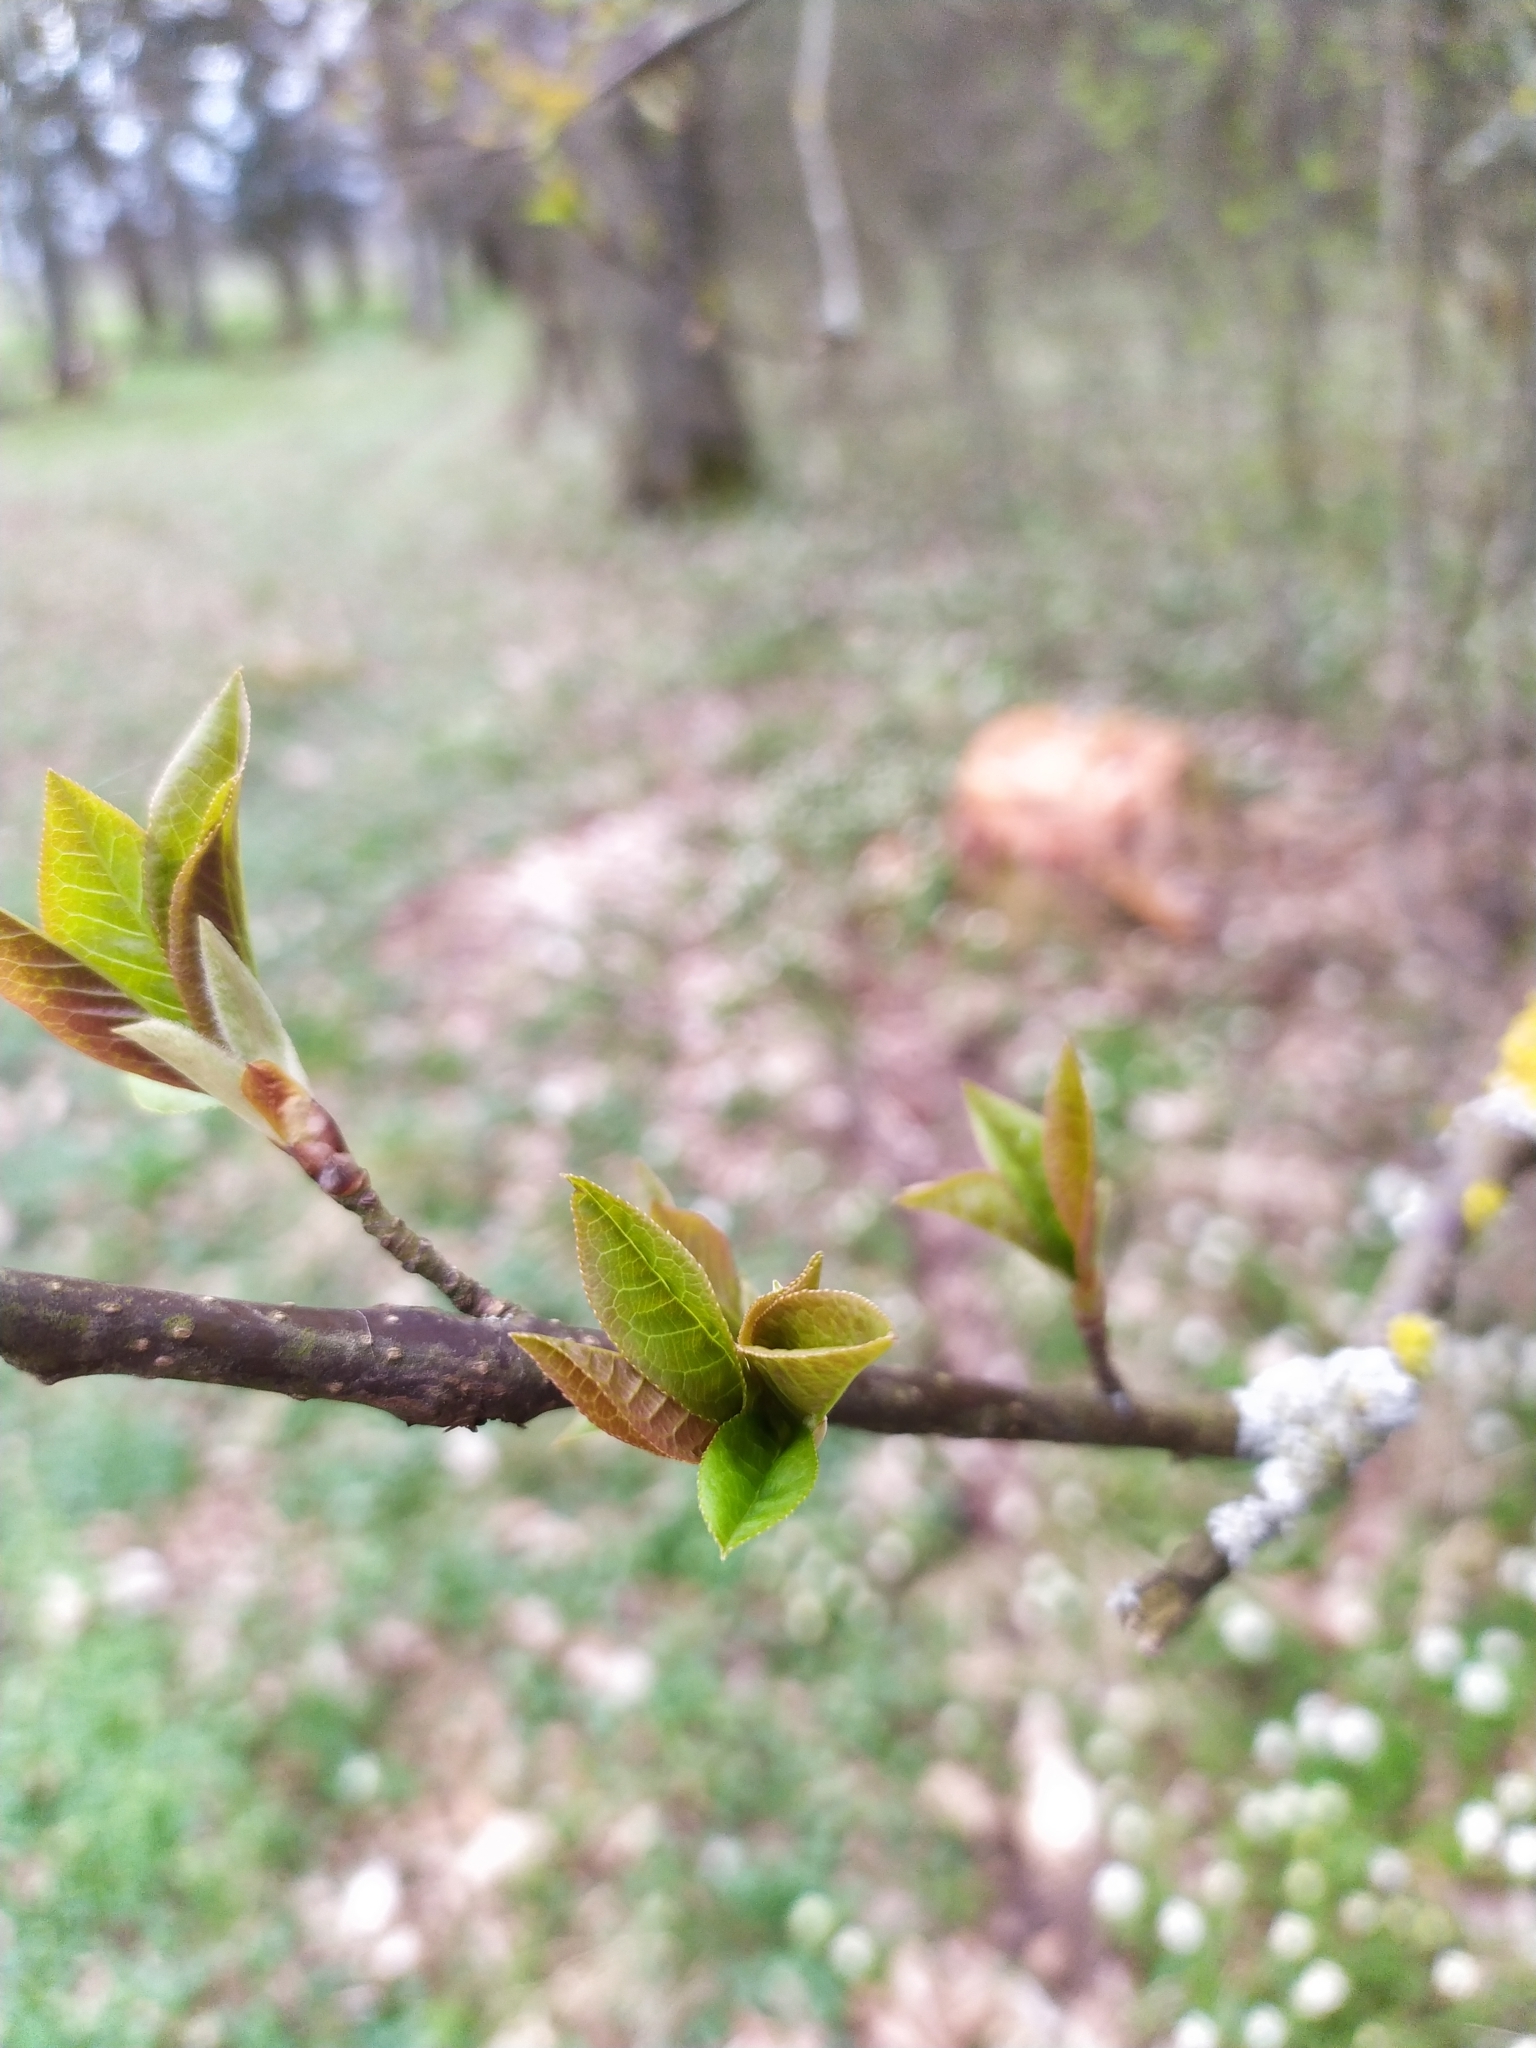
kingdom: Plantae
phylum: Tracheophyta
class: Magnoliopsida
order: Rosales
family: Rosaceae
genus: Prunus
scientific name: Prunus padus
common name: Bird cherry
